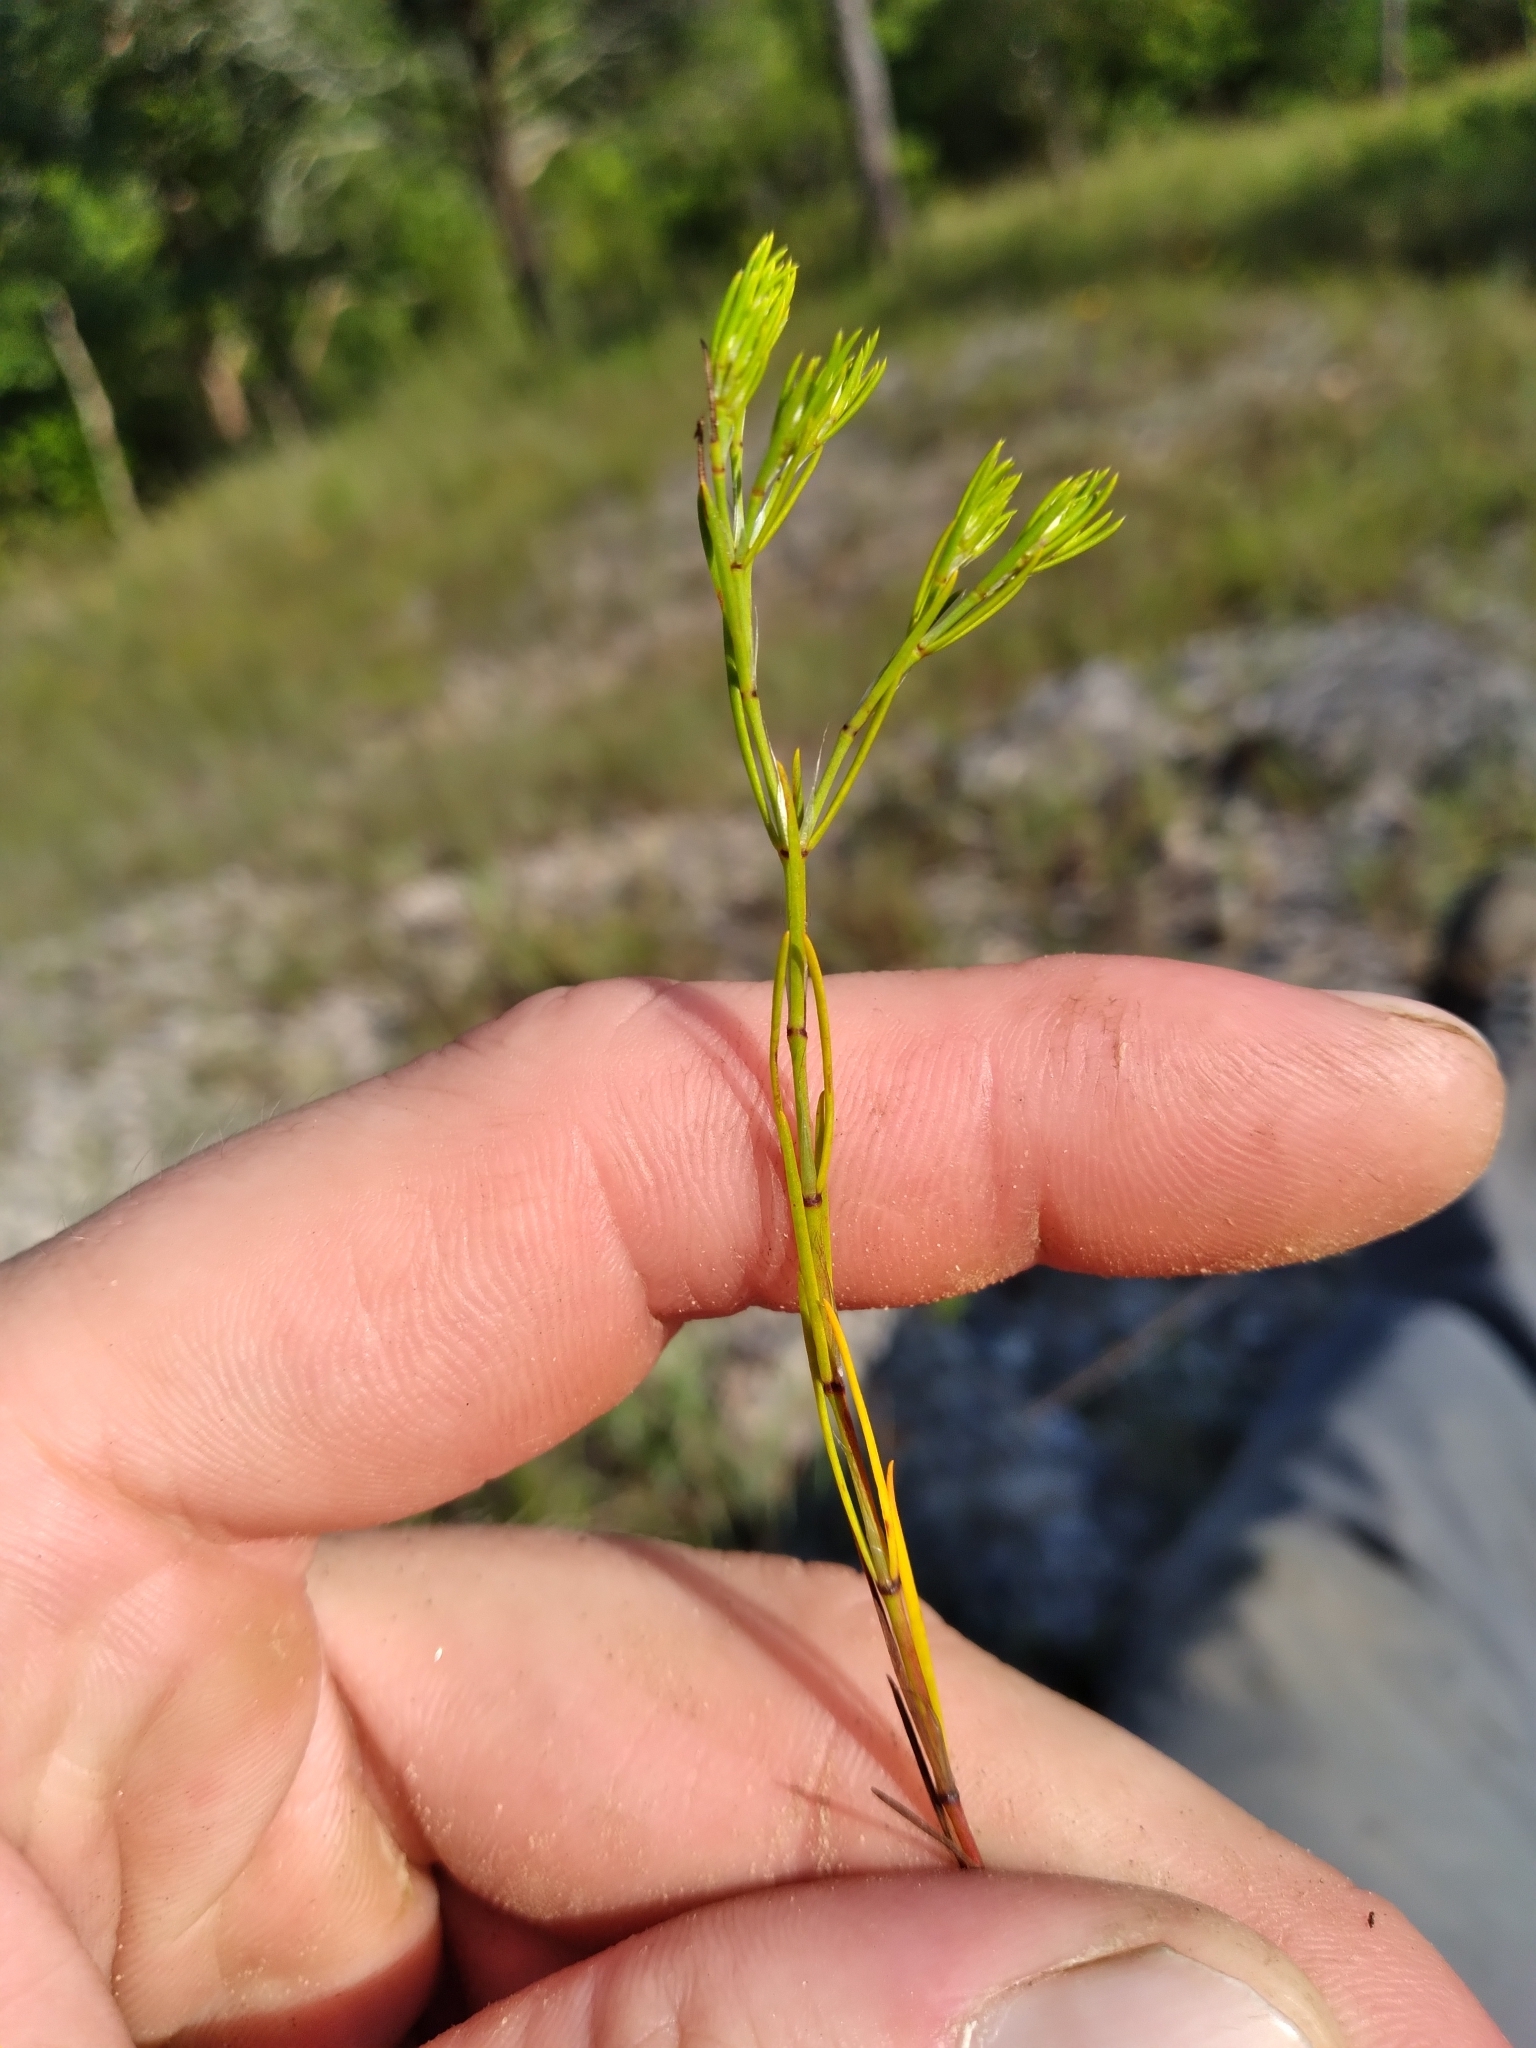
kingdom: Plantae
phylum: Tracheophyta
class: Magnoliopsida
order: Caryophyllales
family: Caryophyllaceae
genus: Paronychia
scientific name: Paronychia virginica
